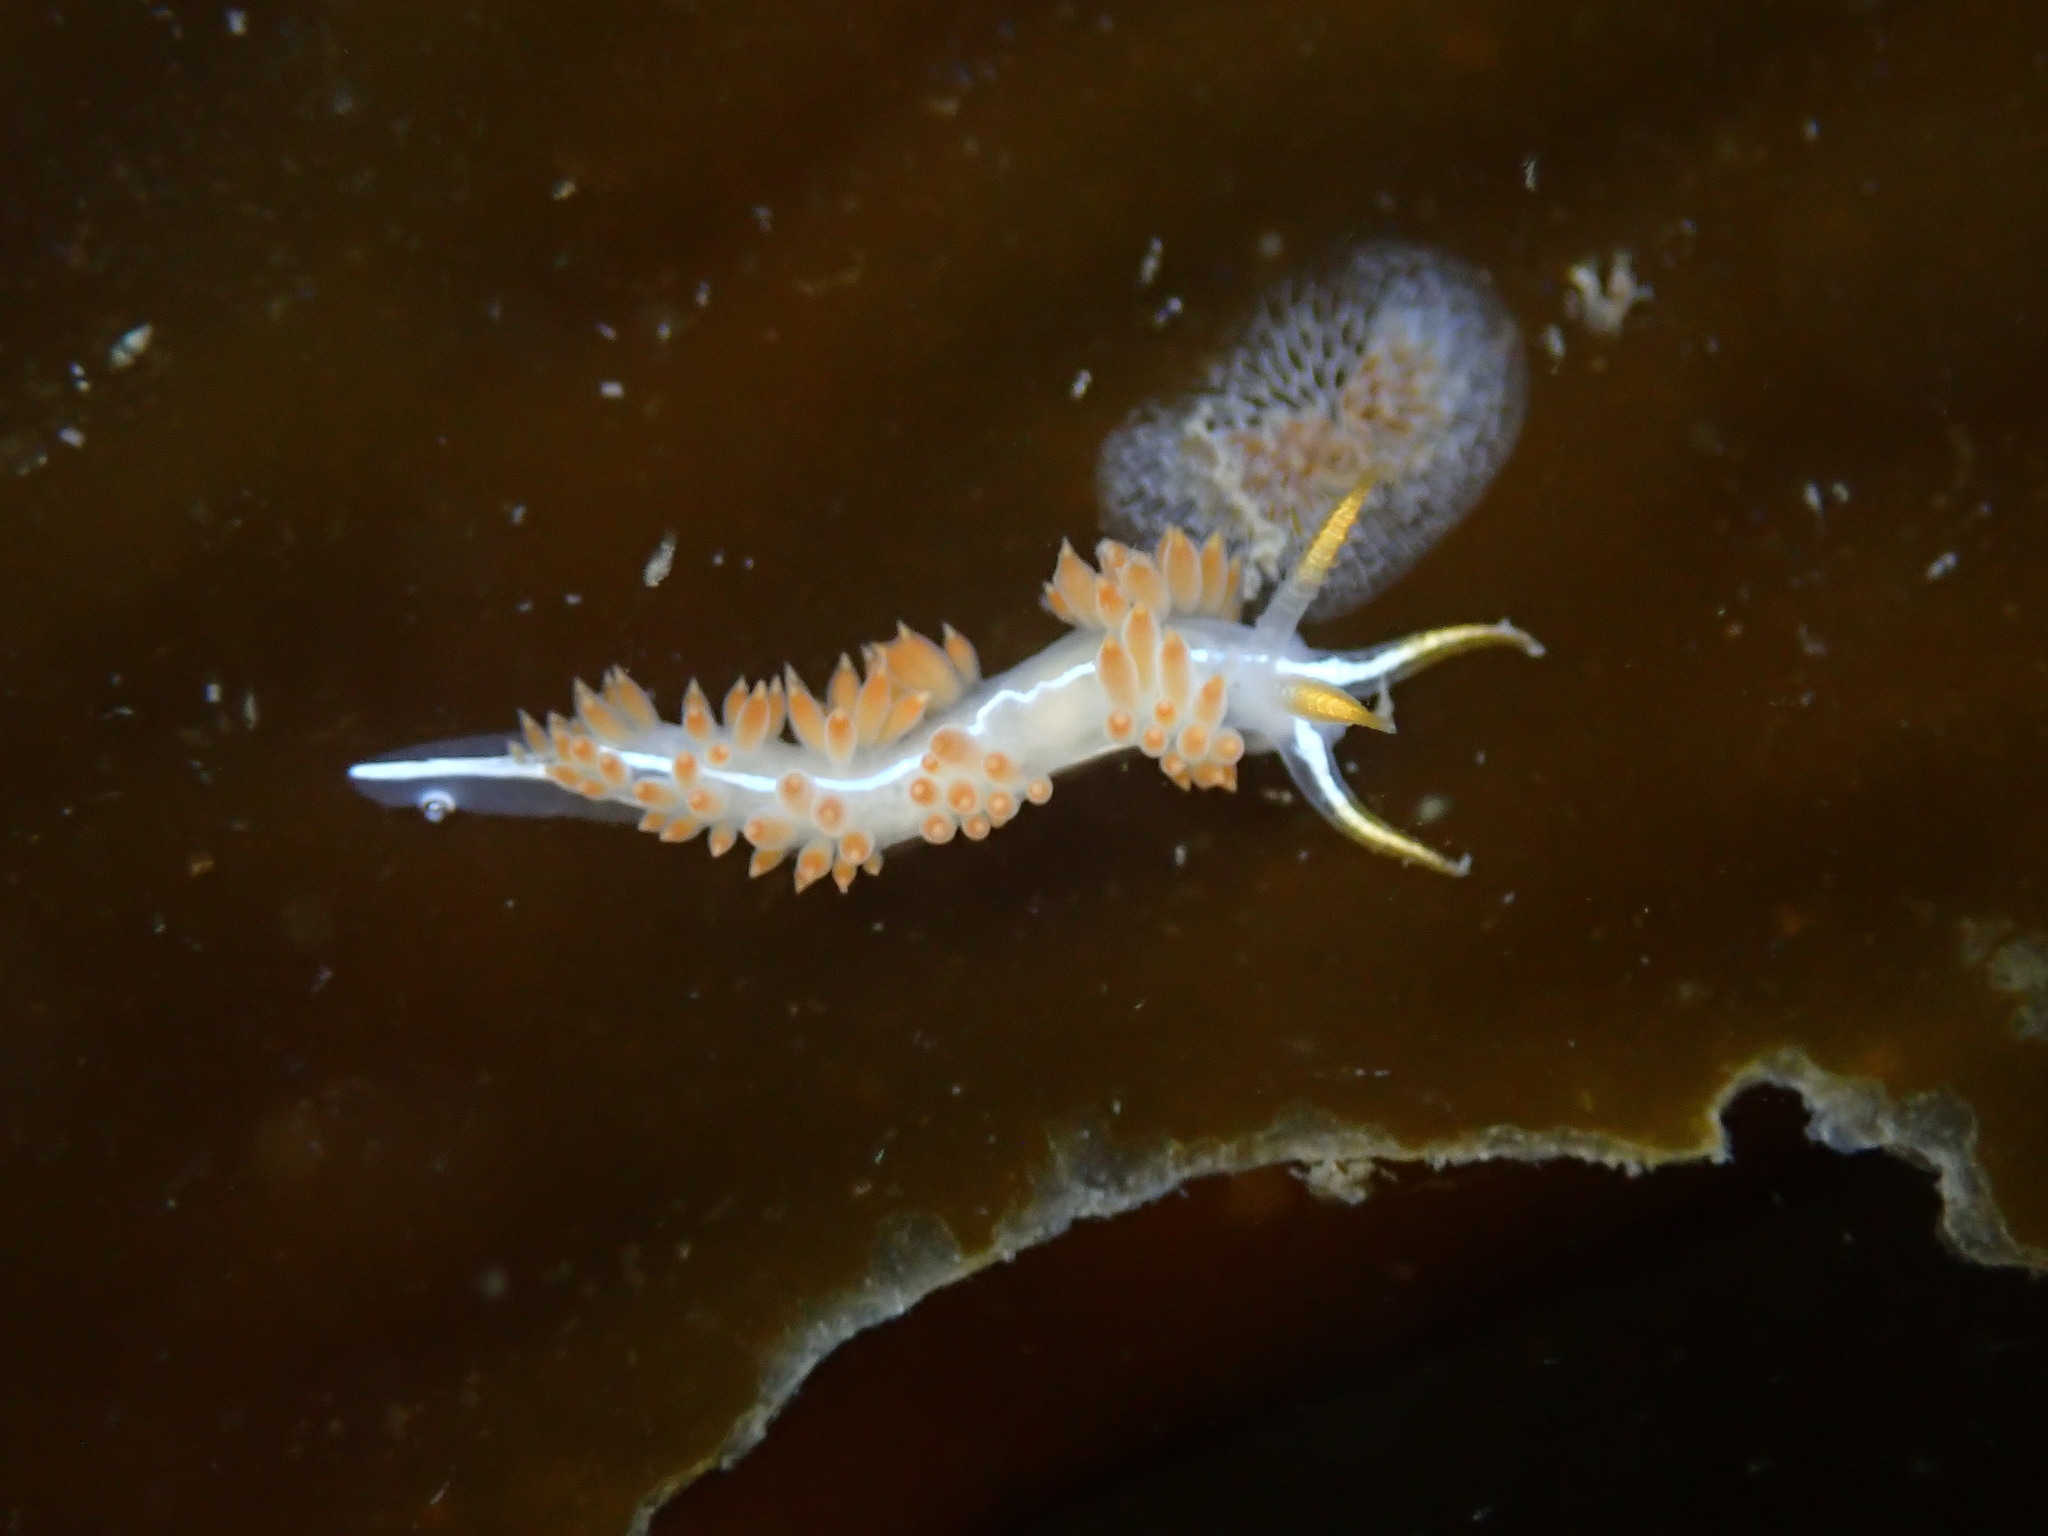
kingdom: Animalia
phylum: Mollusca
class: Gastropoda
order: Nudibranchia
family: Coryphellidae
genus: Coryphella
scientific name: Coryphella trilineata
